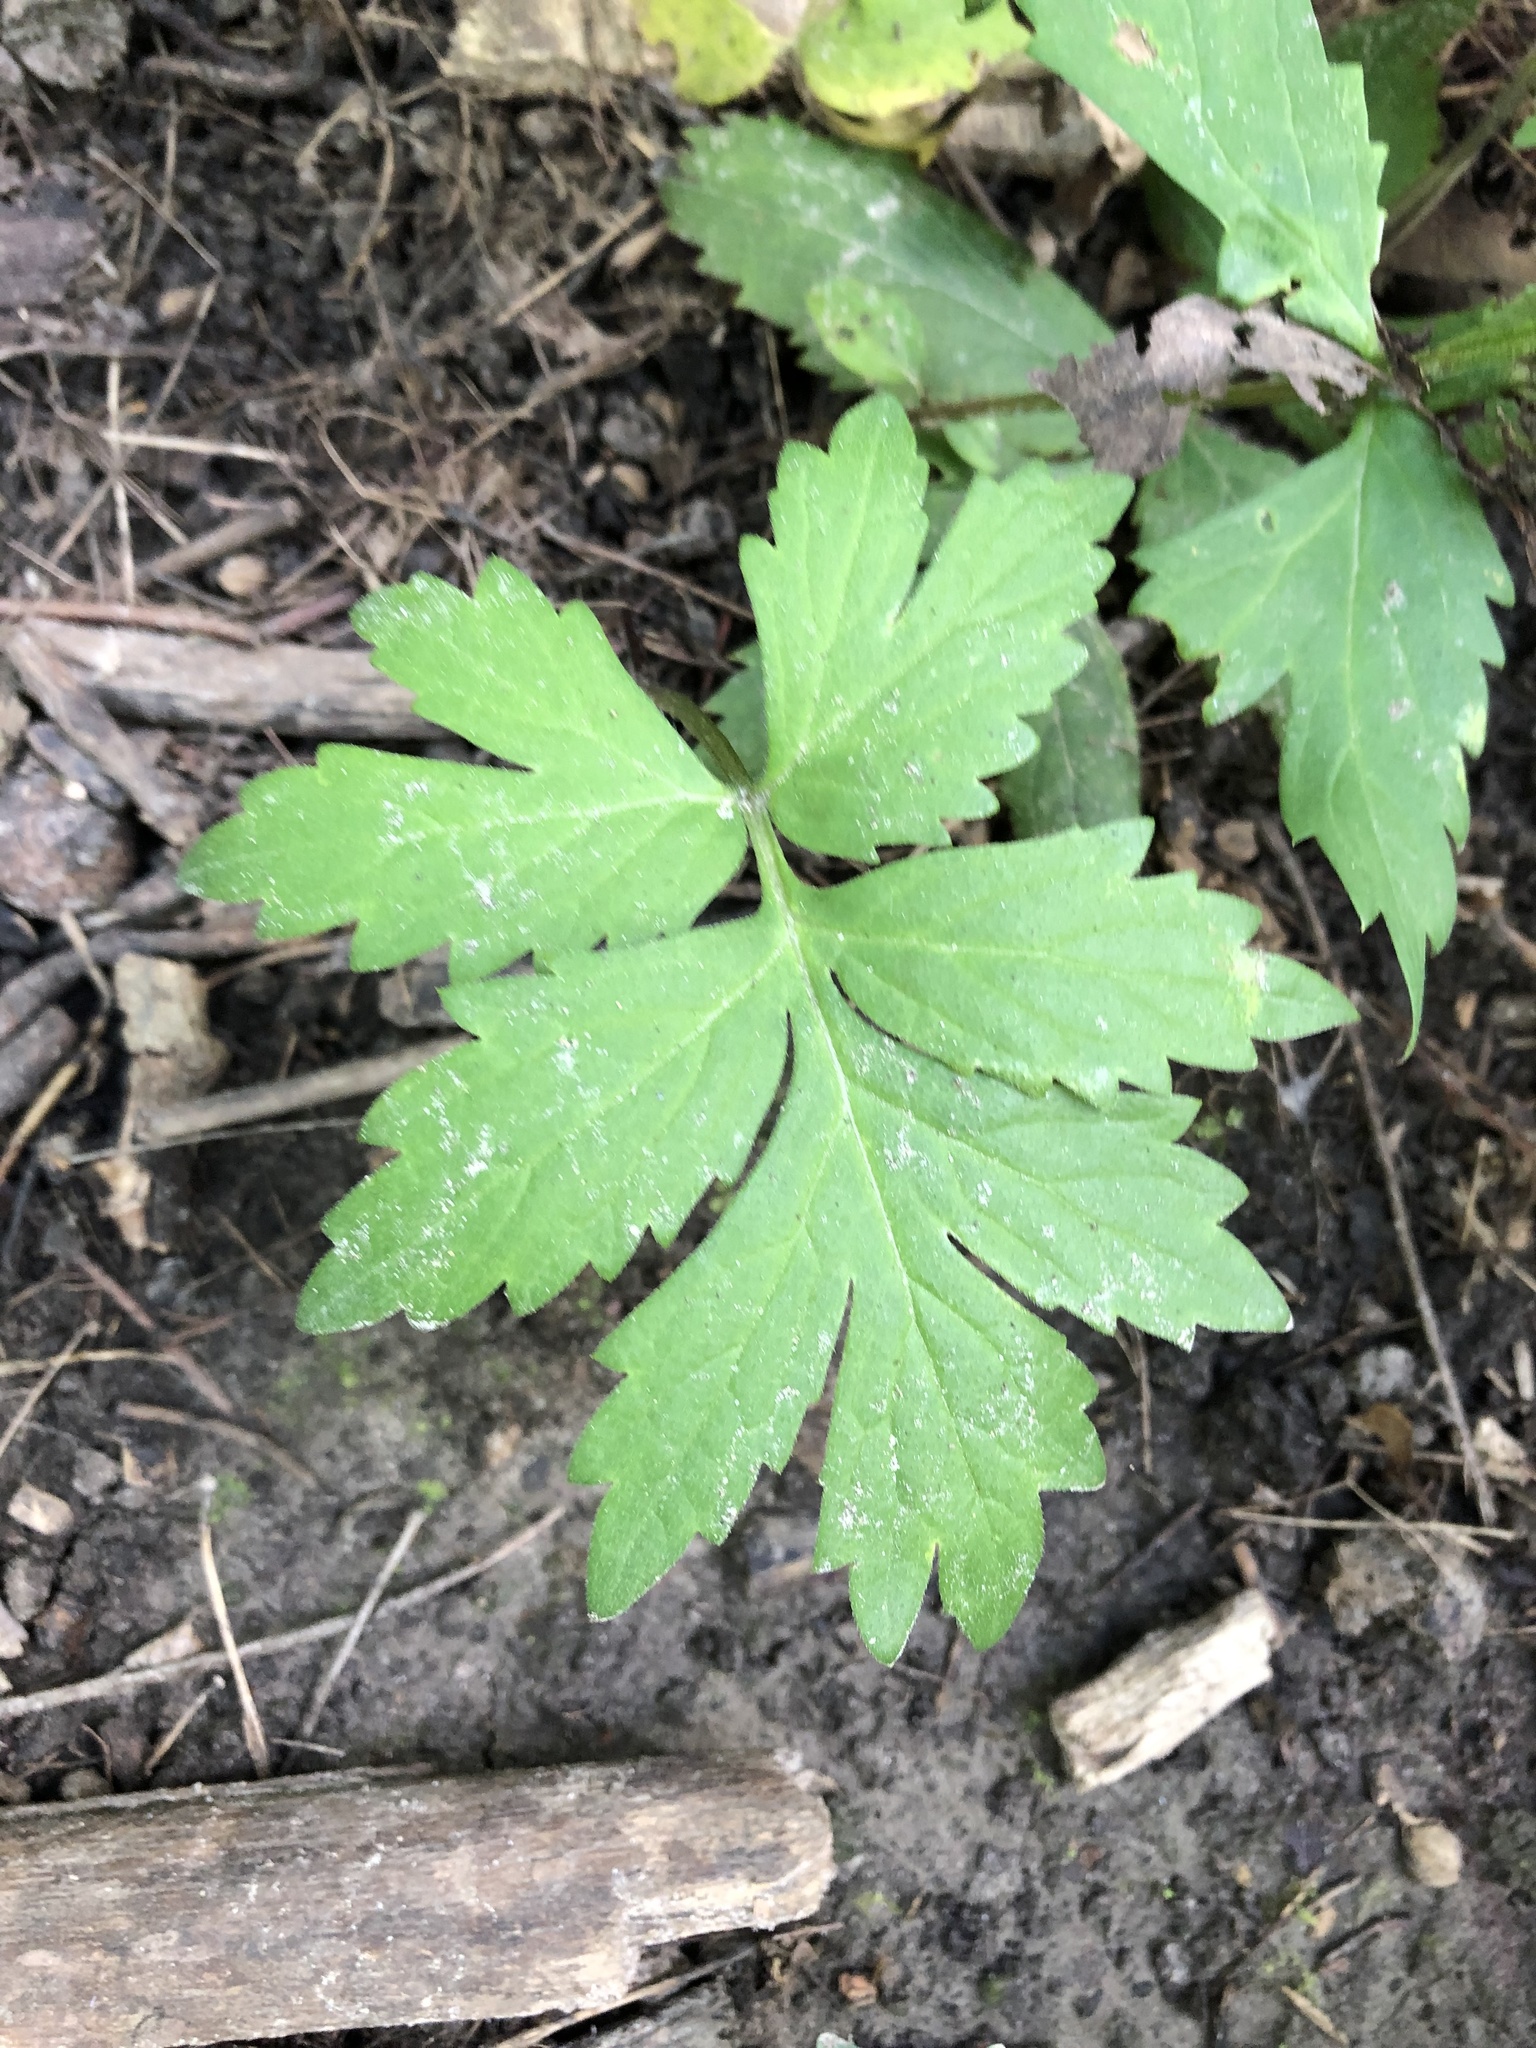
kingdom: Plantae
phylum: Tracheophyta
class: Magnoliopsida
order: Boraginales
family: Hydrophyllaceae
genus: Hydrophyllum
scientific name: Hydrophyllum virginianum
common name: Virginia waterleaf
